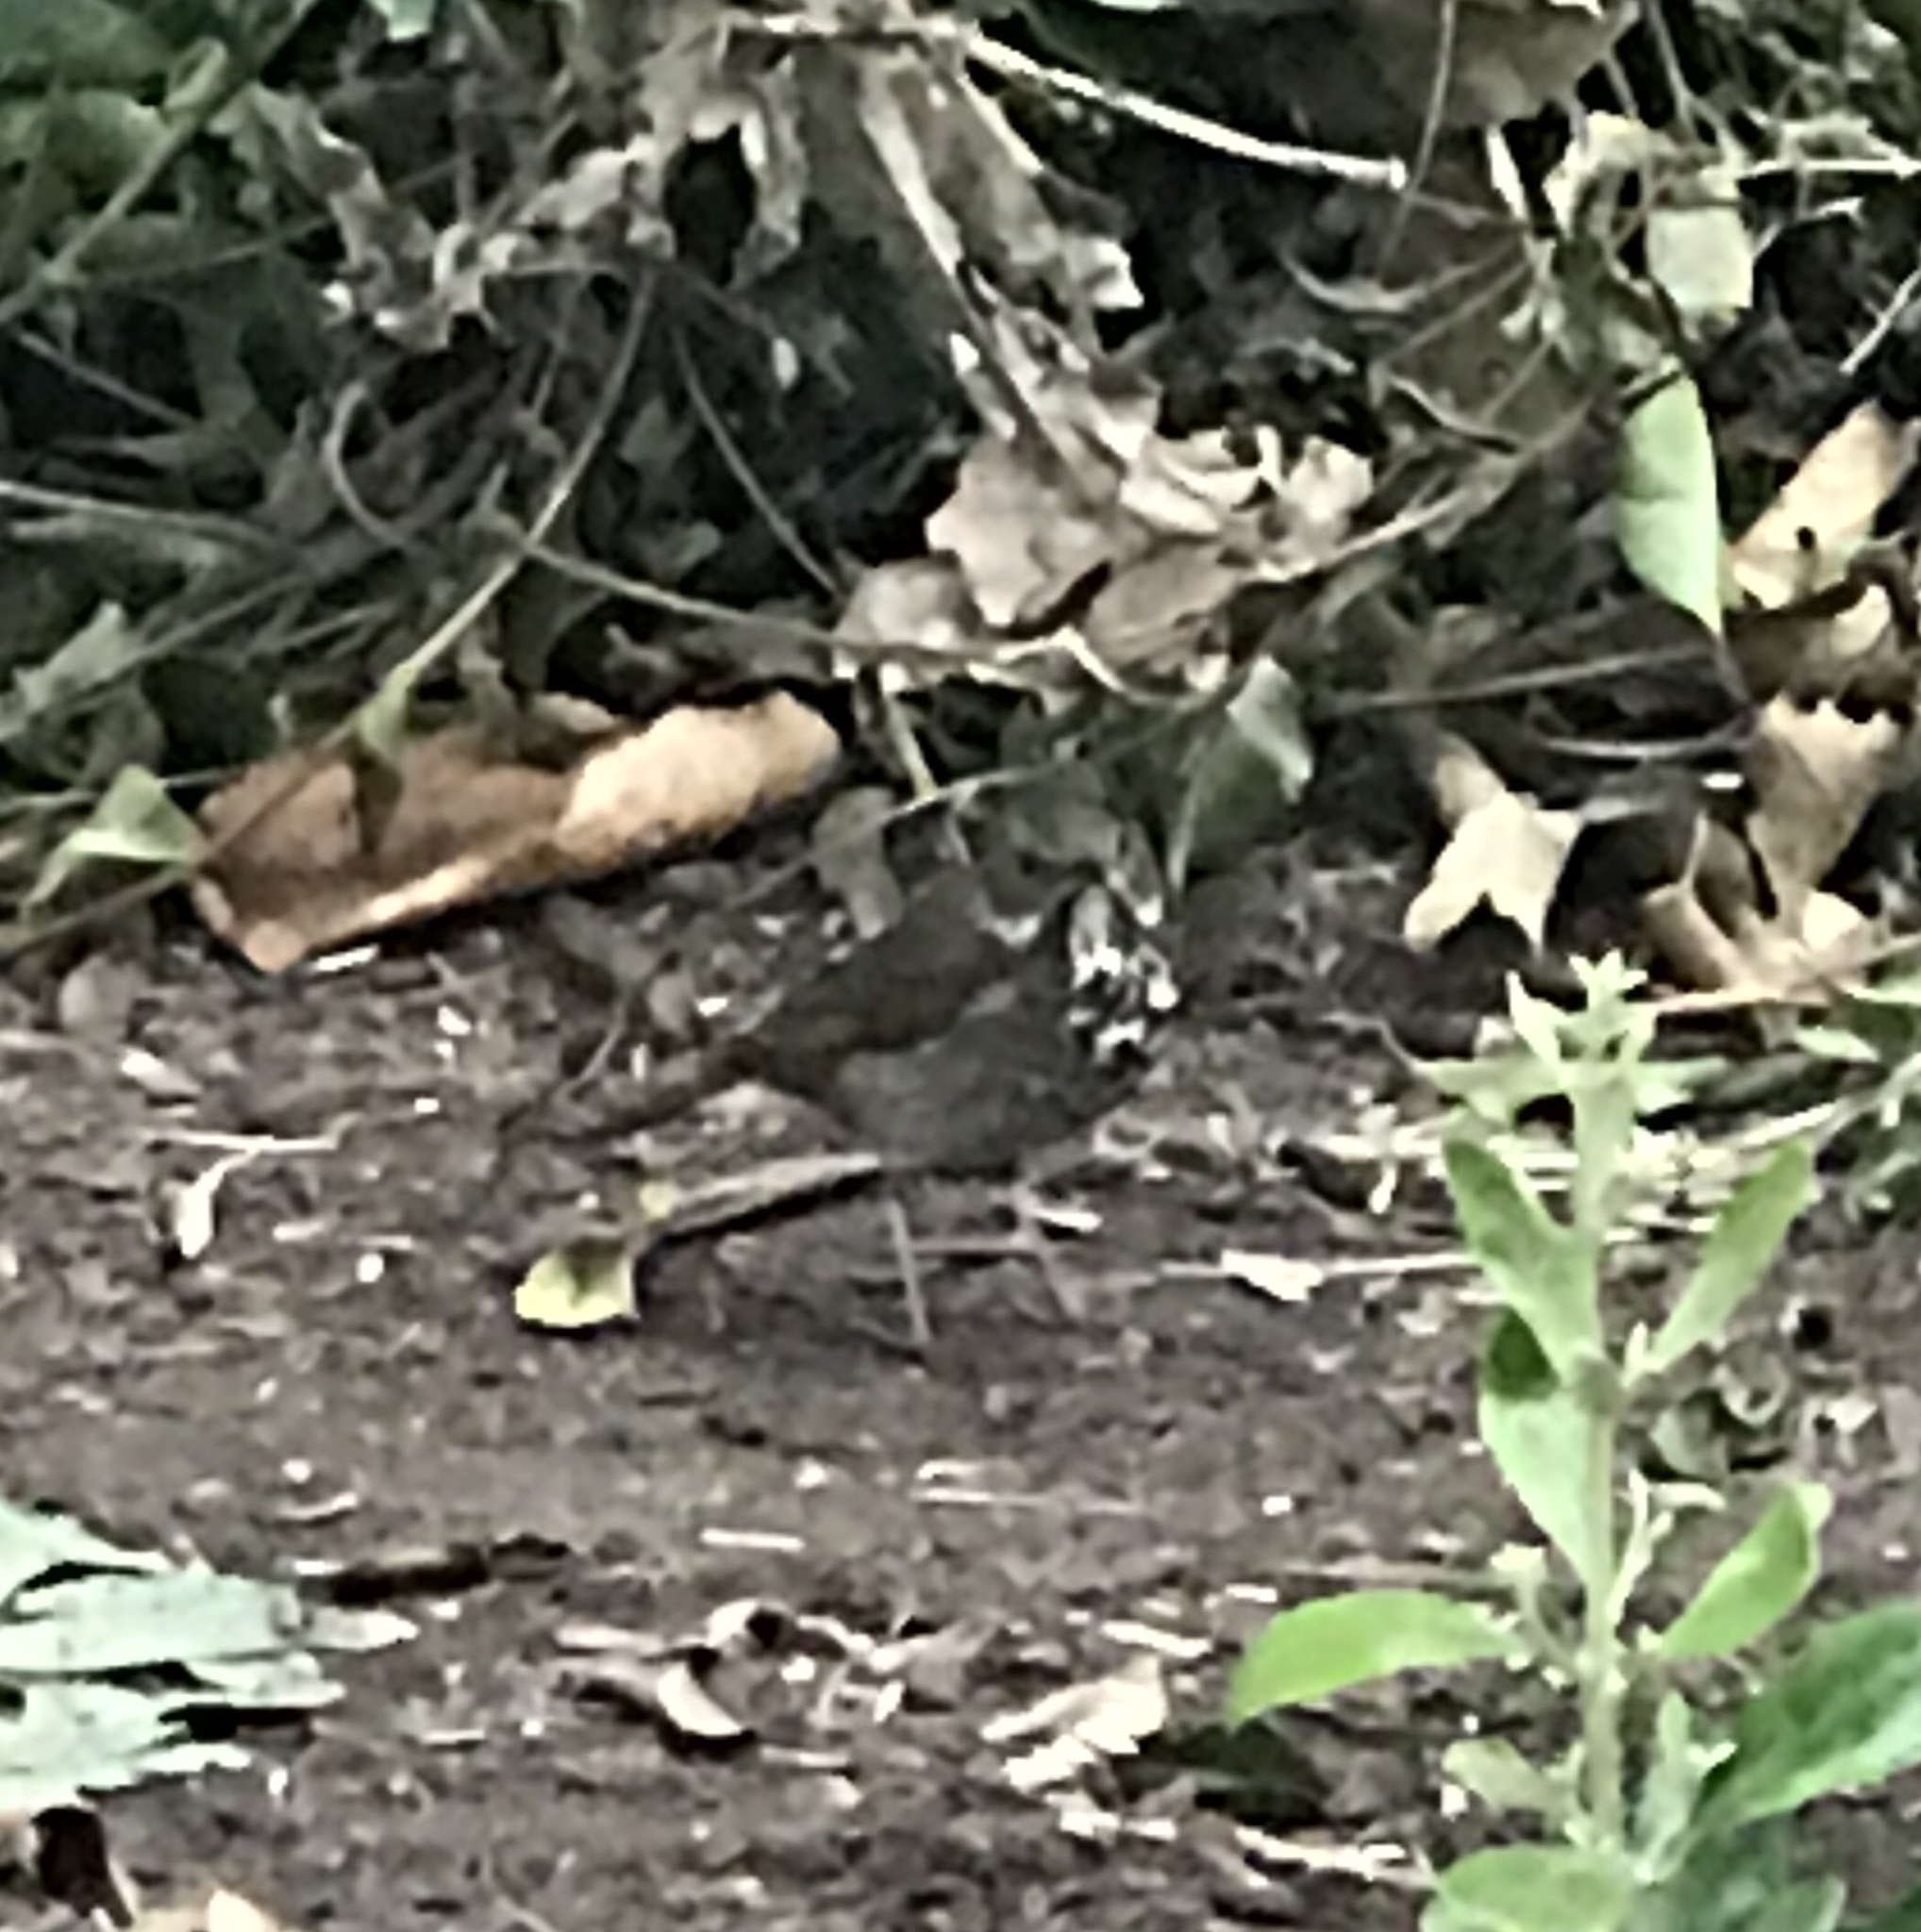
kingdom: Animalia
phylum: Chordata
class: Aves
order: Passeriformes
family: Turdidae
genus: Catharus
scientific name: Catharus guttatus
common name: Hermit thrush
